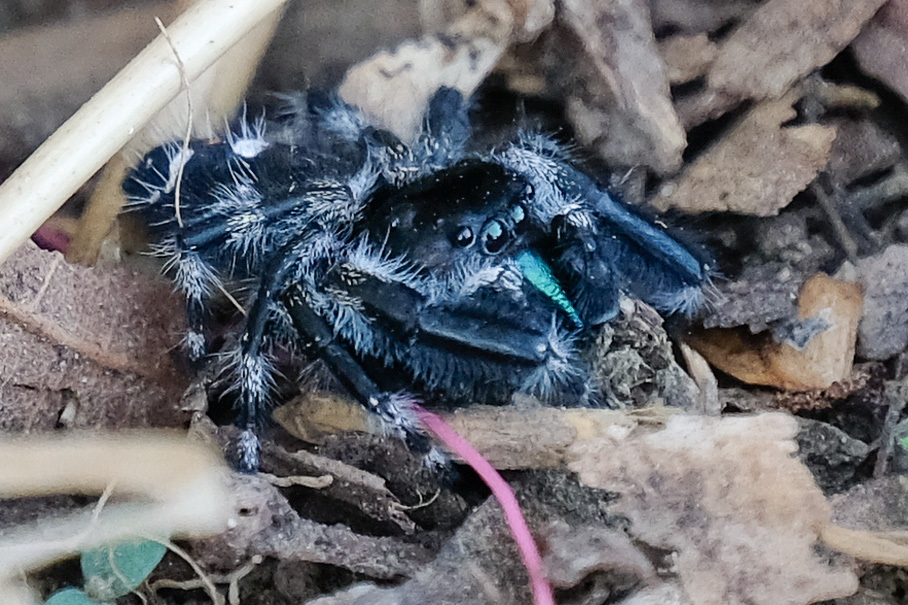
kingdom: Animalia
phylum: Arthropoda
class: Arachnida
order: Araneae
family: Salticidae
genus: Phidippus
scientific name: Phidippus audax
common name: Bold jumper
